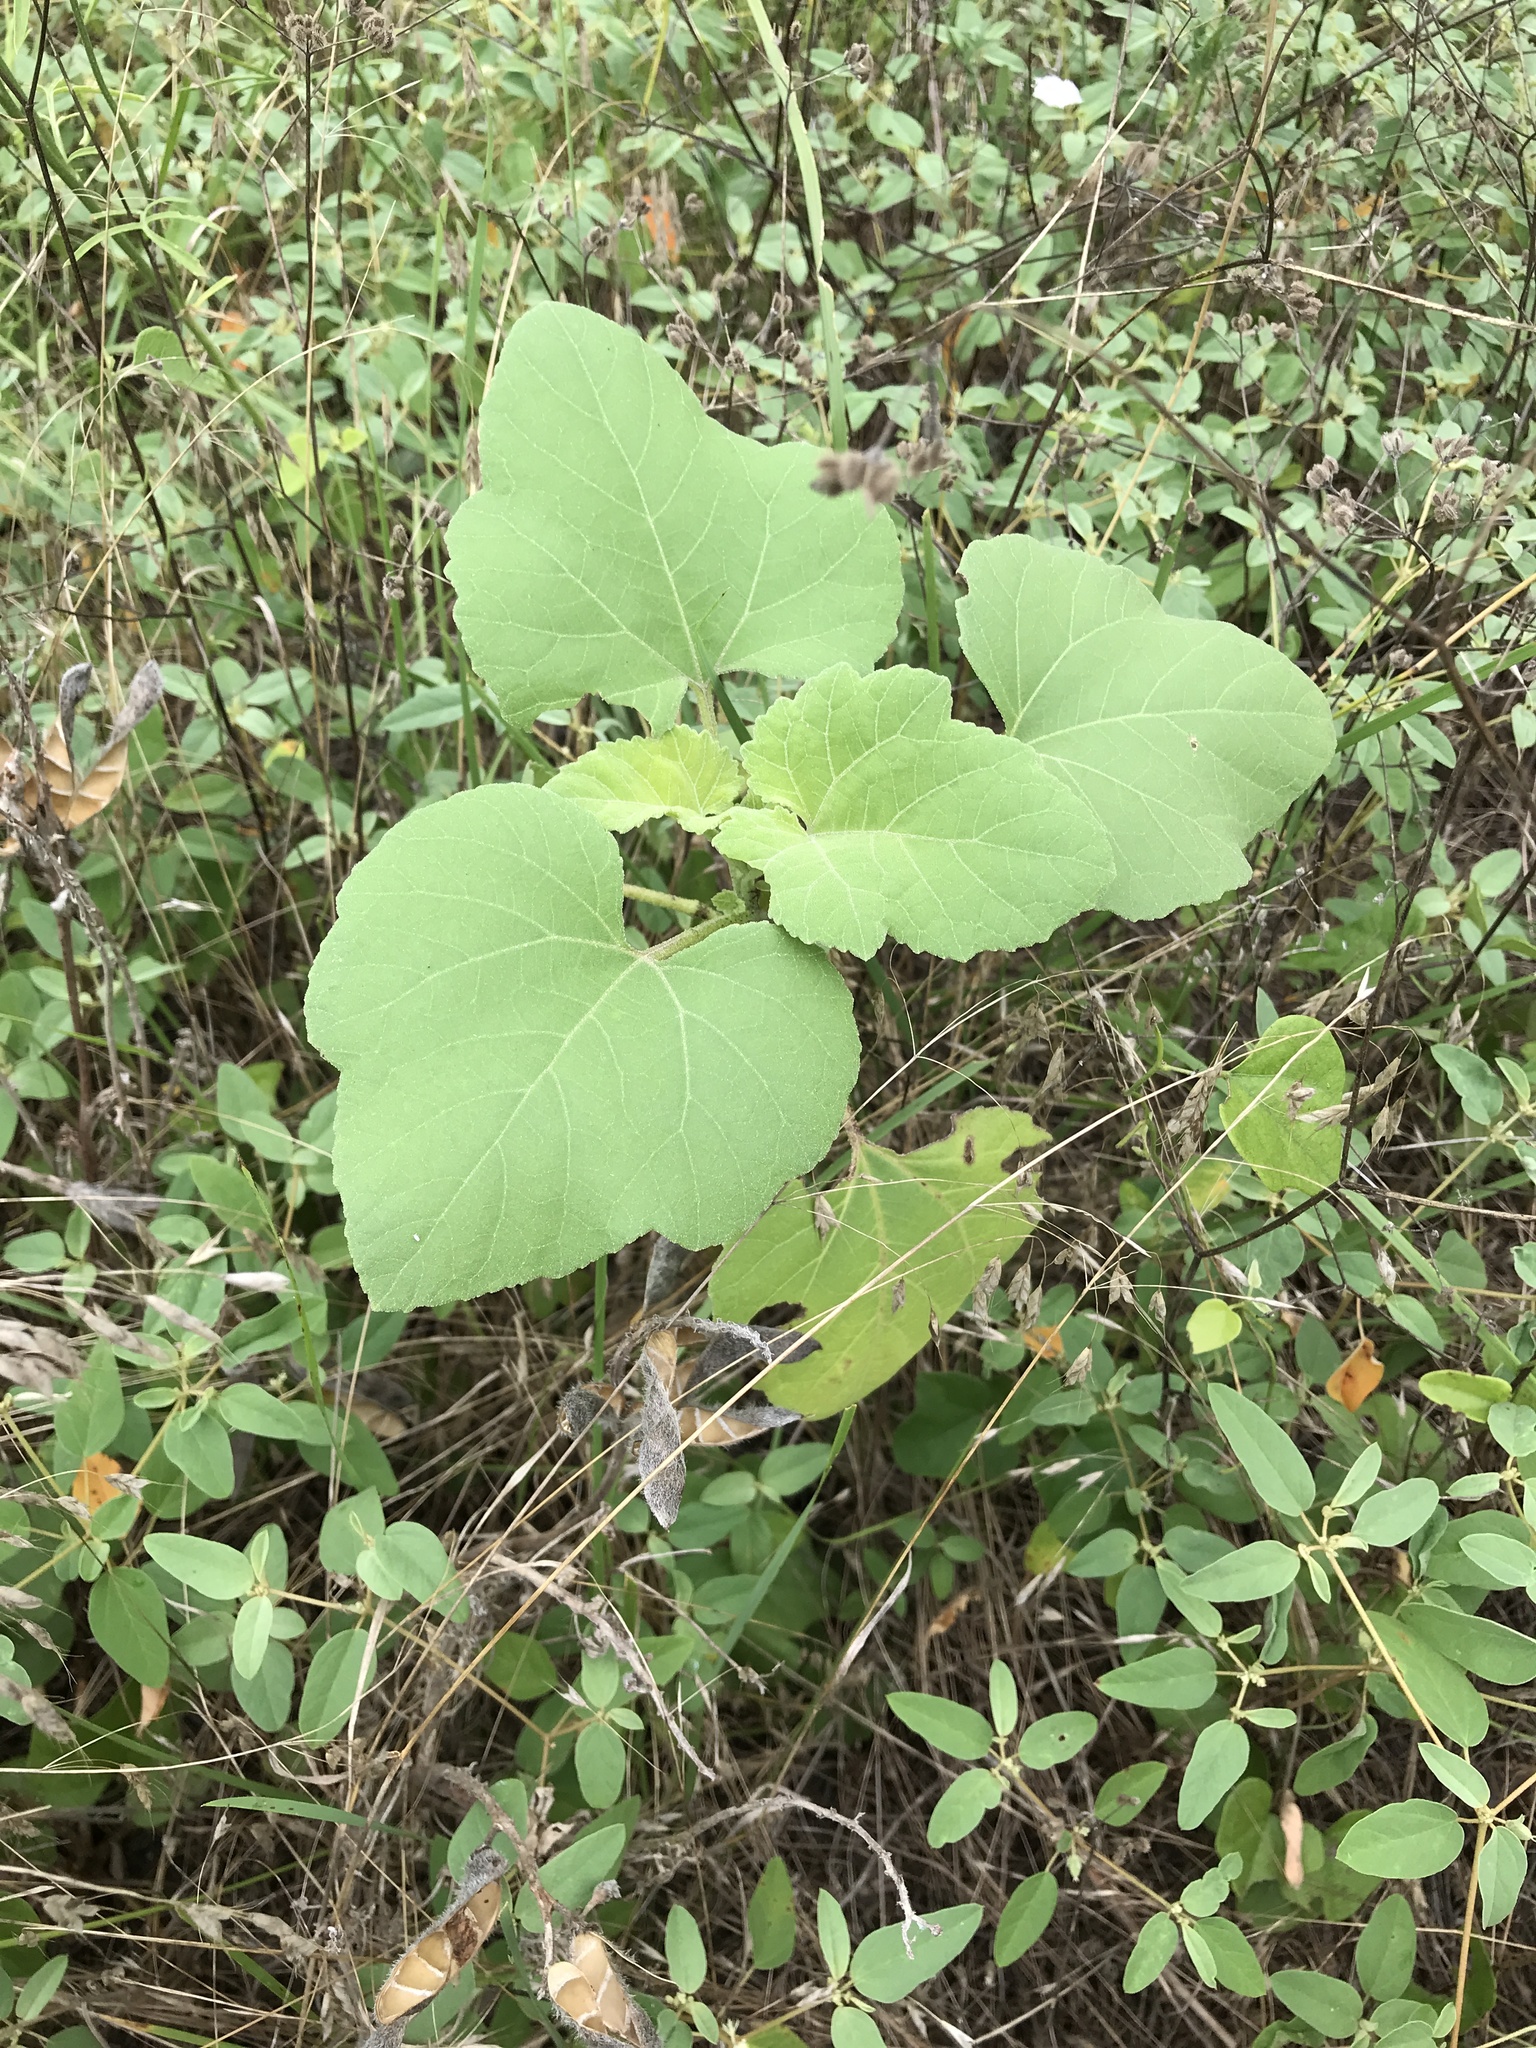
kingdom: Plantae
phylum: Tracheophyta
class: Magnoliopsida
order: Asterales
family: Asteraceae
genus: Xanthium
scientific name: Xanthium strumarium
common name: Rough cocklebur
